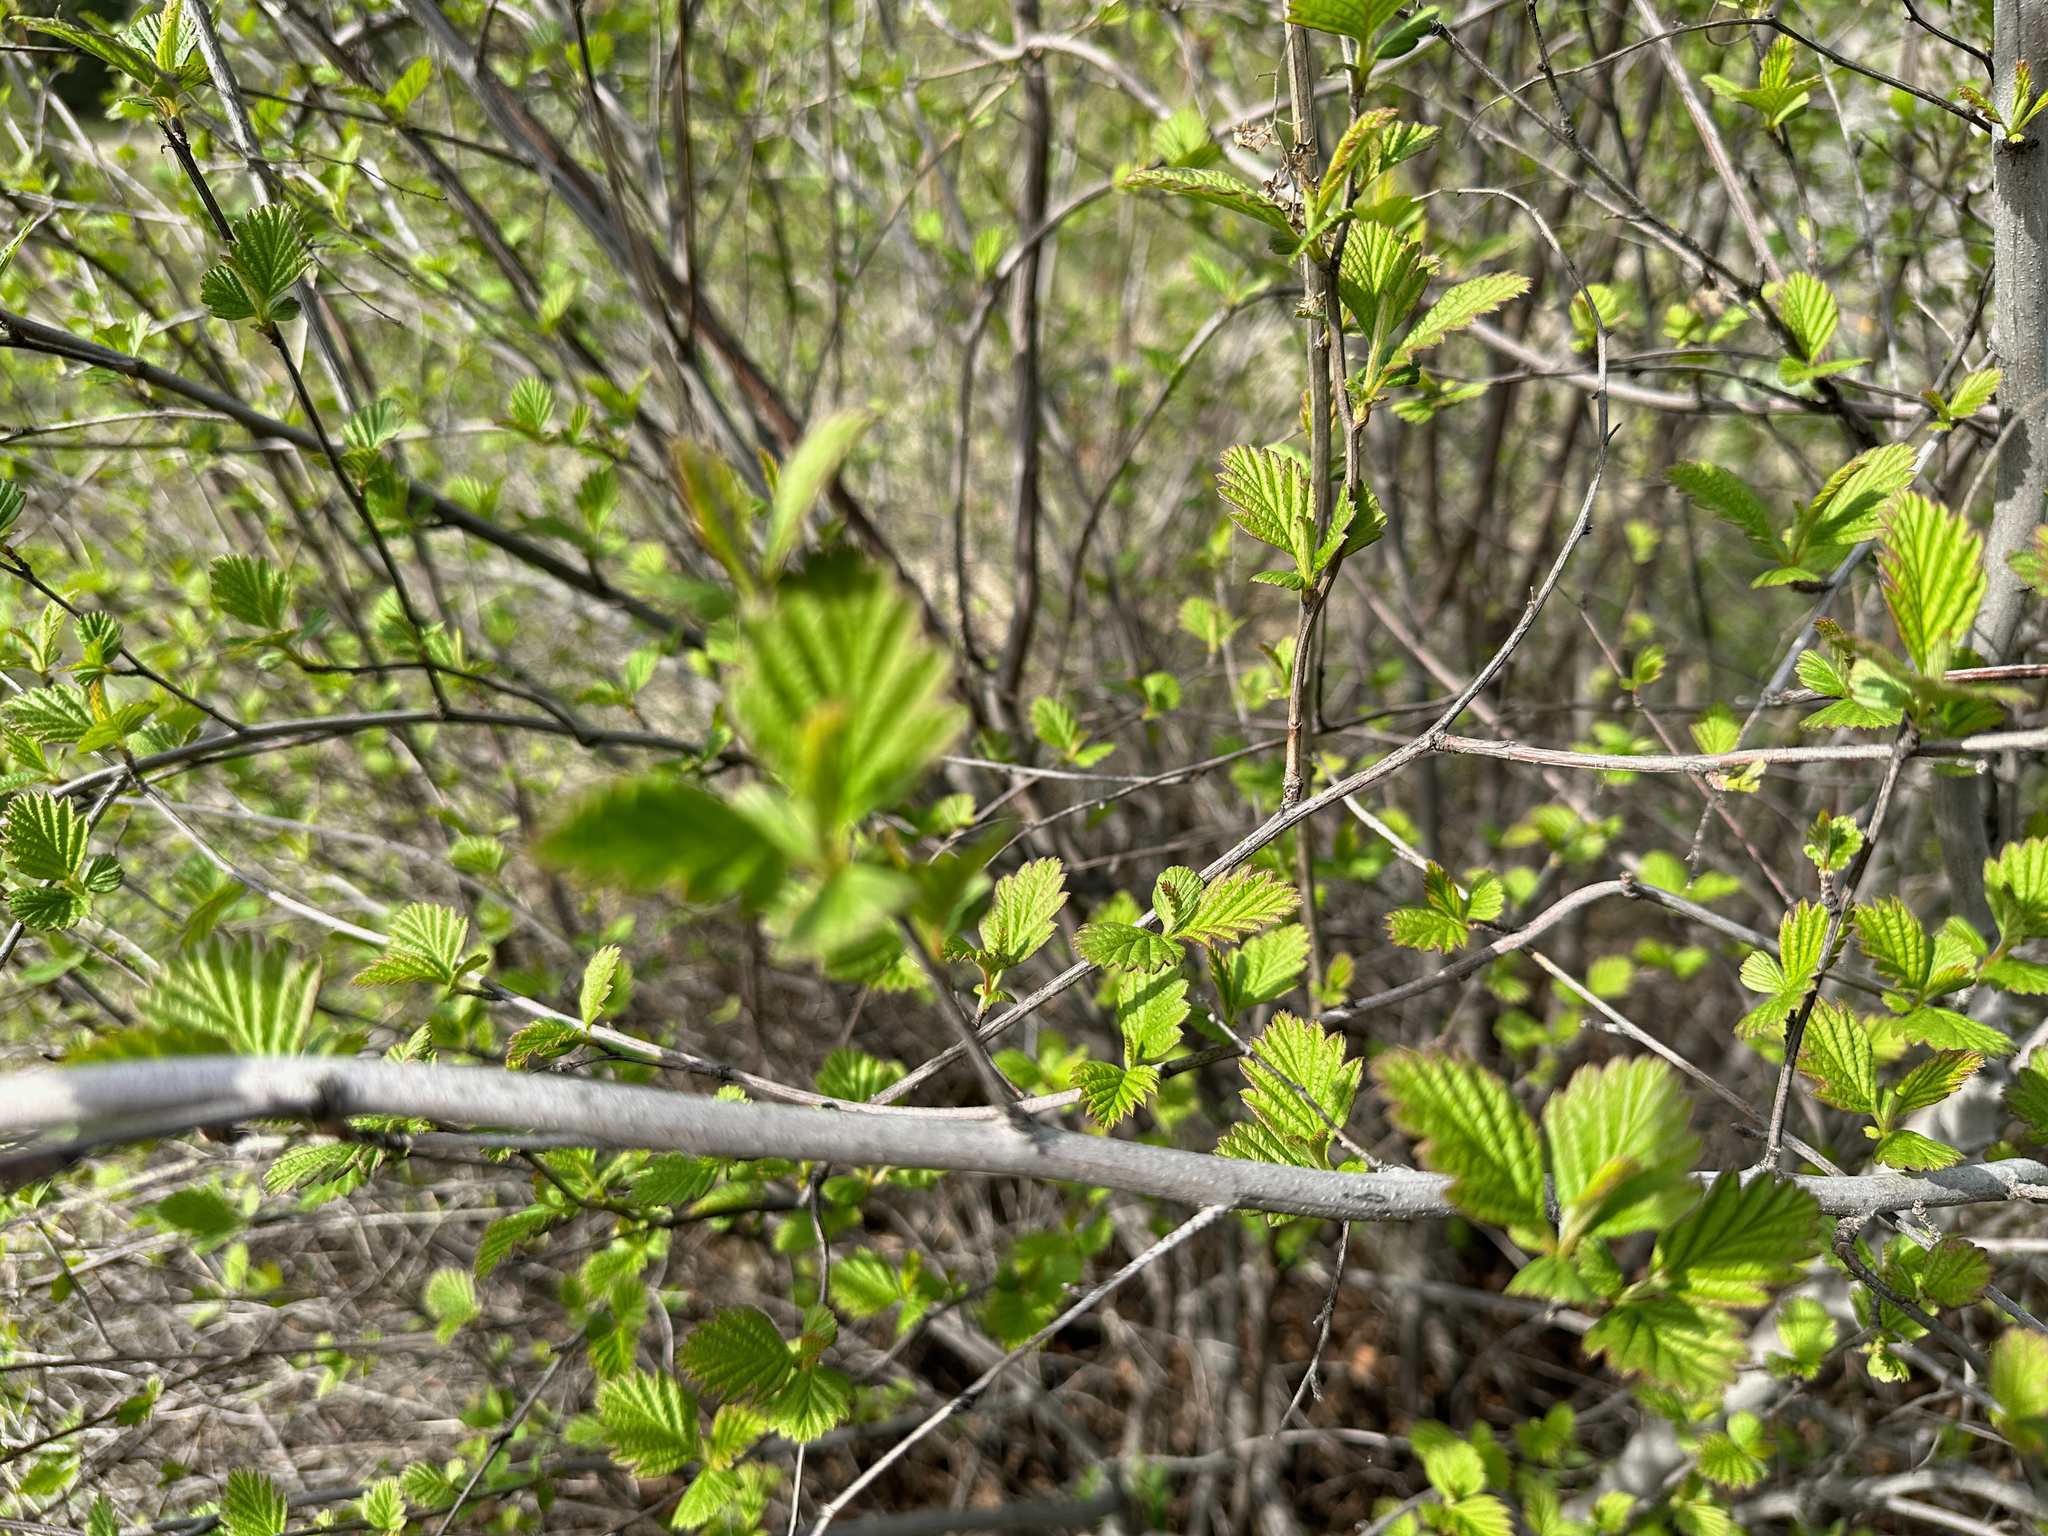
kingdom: Plantae
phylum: Tracheophyta
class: Magnoliopsida
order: Rosales
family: Rosaceae
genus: Holodiscus
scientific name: Holodiscus discolor
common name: Oceanspray
